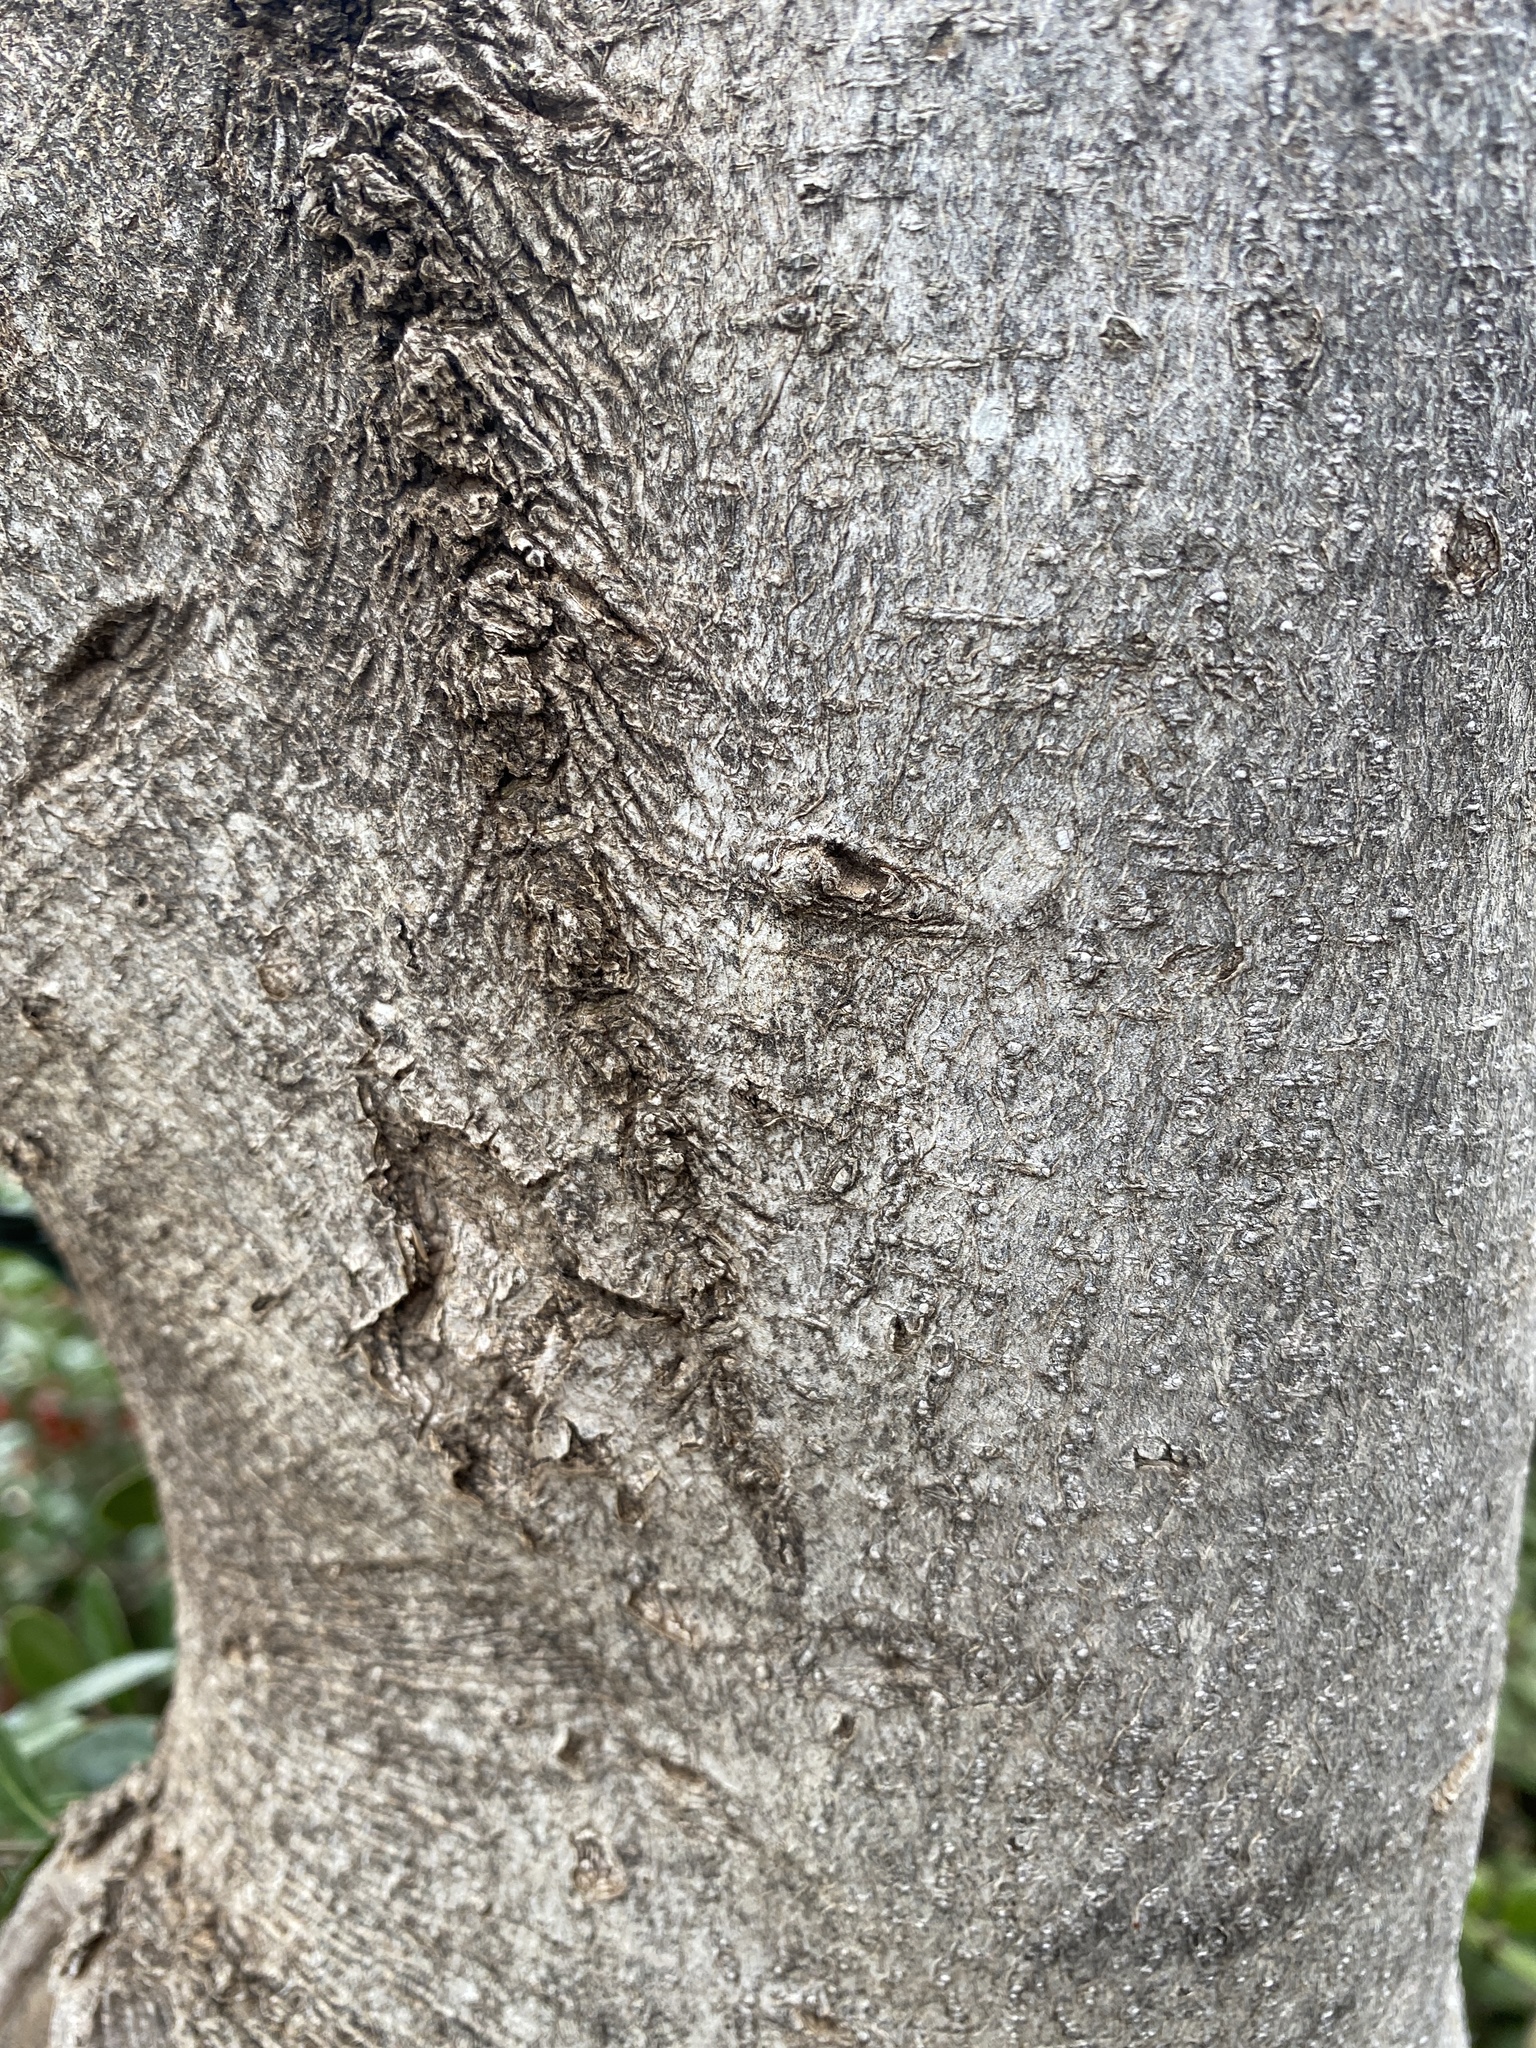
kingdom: Plantae
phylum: Tracheophyta
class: Magnoliopsida
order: Aquifoliales
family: Aquifoliaceae
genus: Ilex
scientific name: Ilex vomitoria
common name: Yaupon holly
